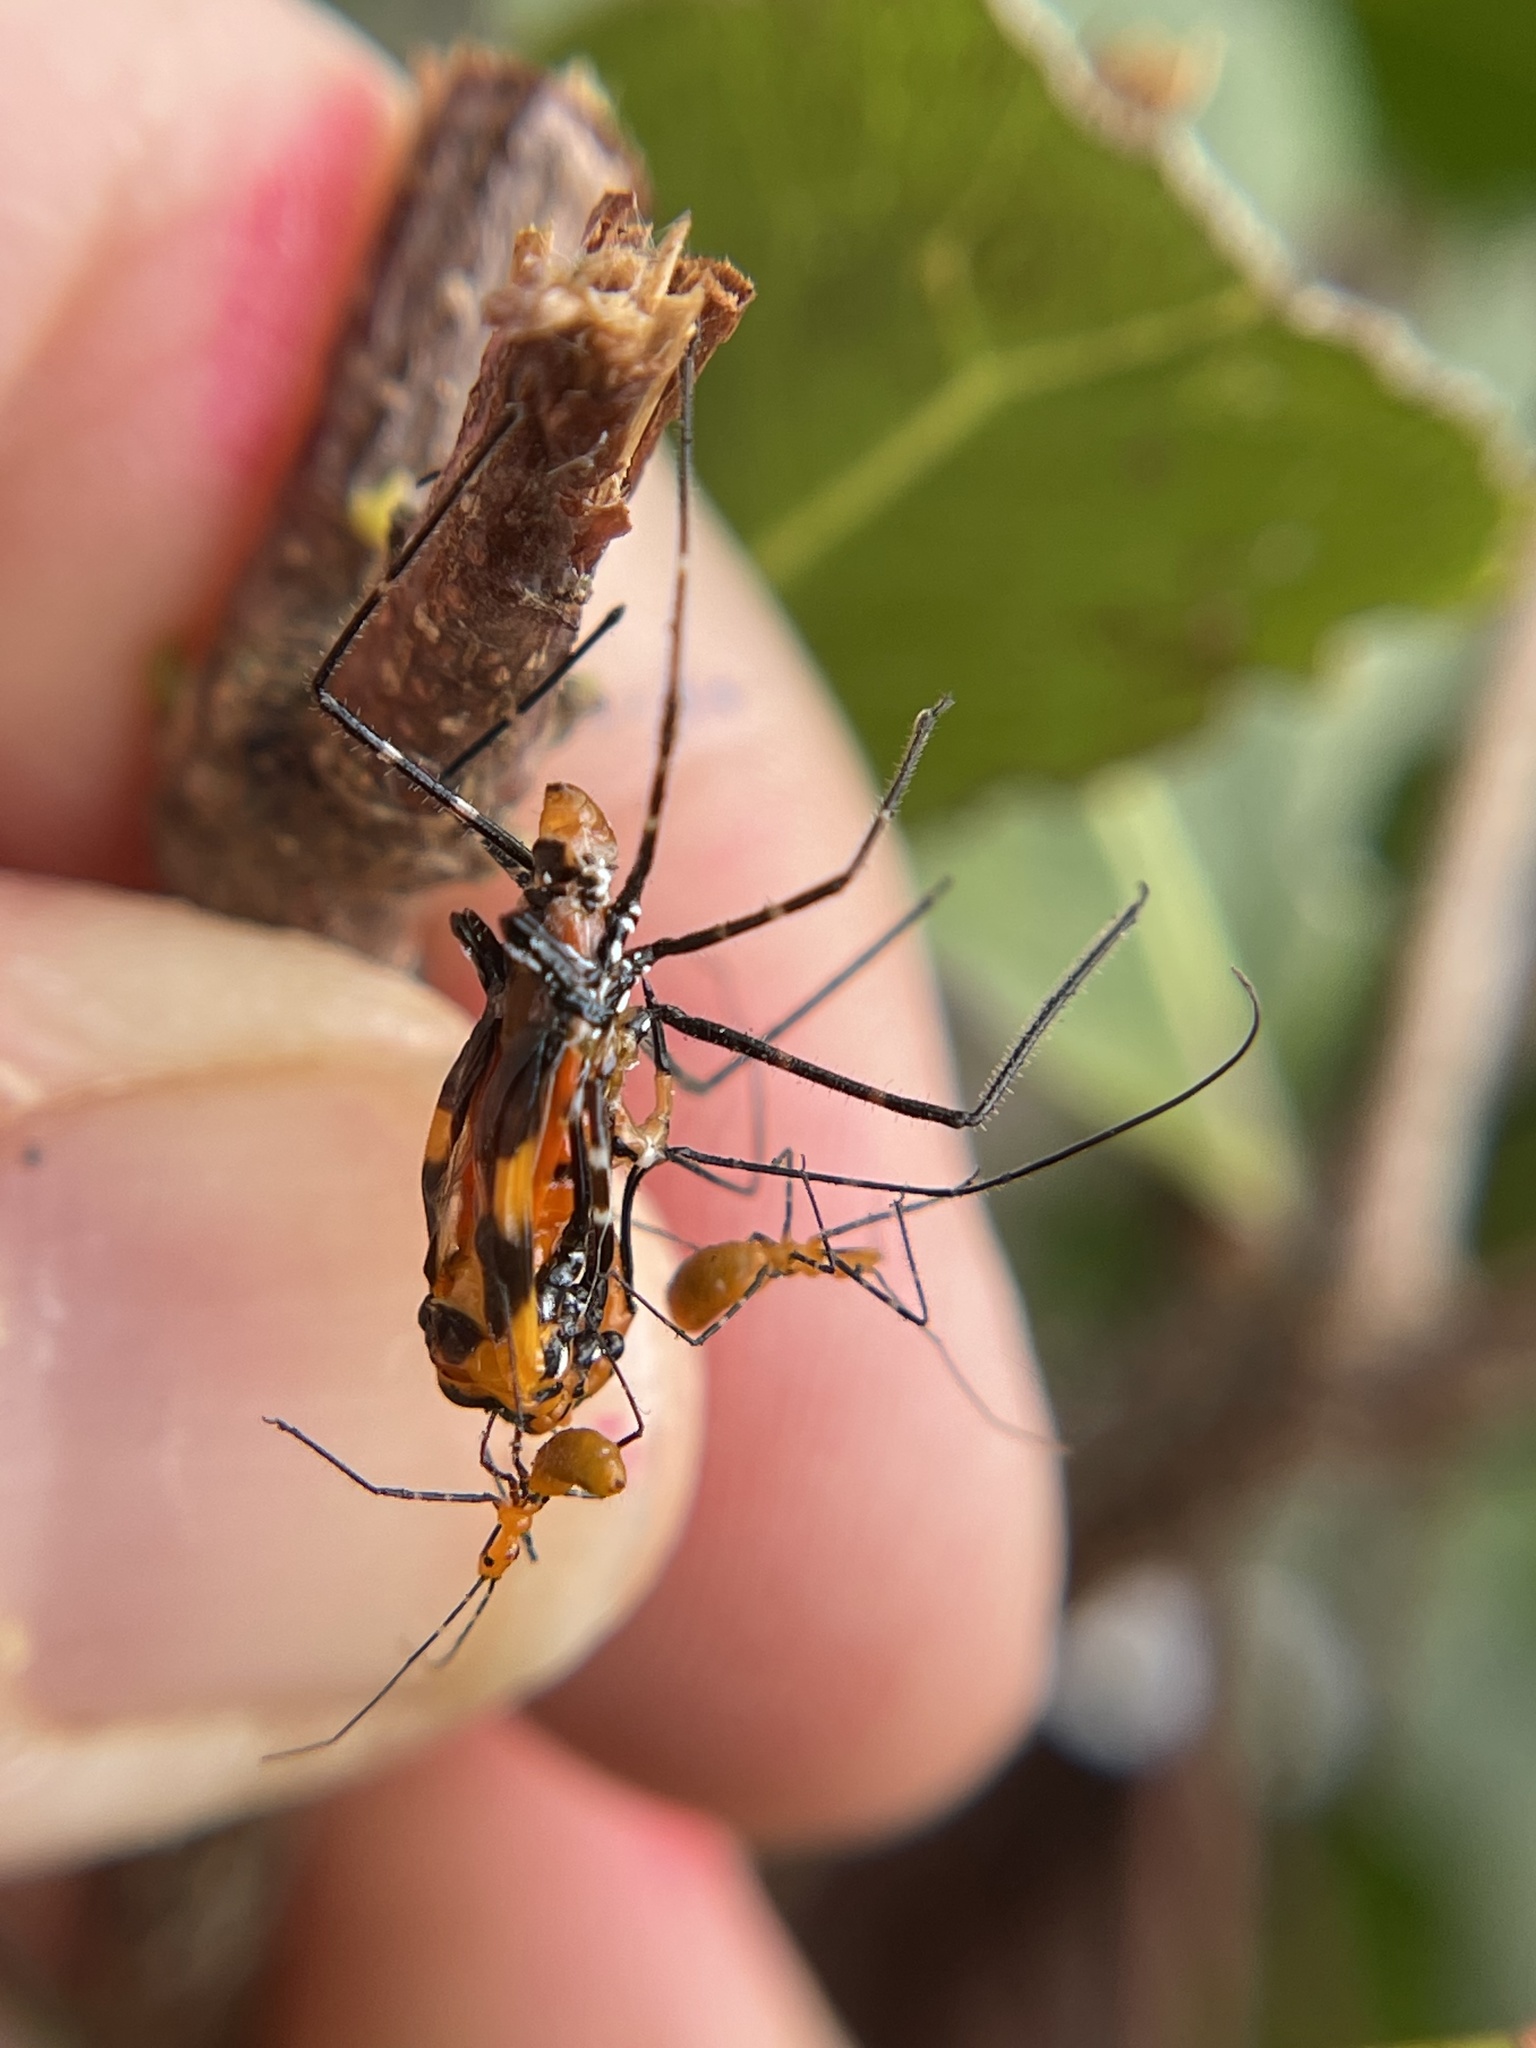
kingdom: Animalia
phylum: Arthropoda
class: Insecta
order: Hemiptera
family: Reduviidae
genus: Zelus
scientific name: Zelus longipes
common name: Milkweed assassin bug
